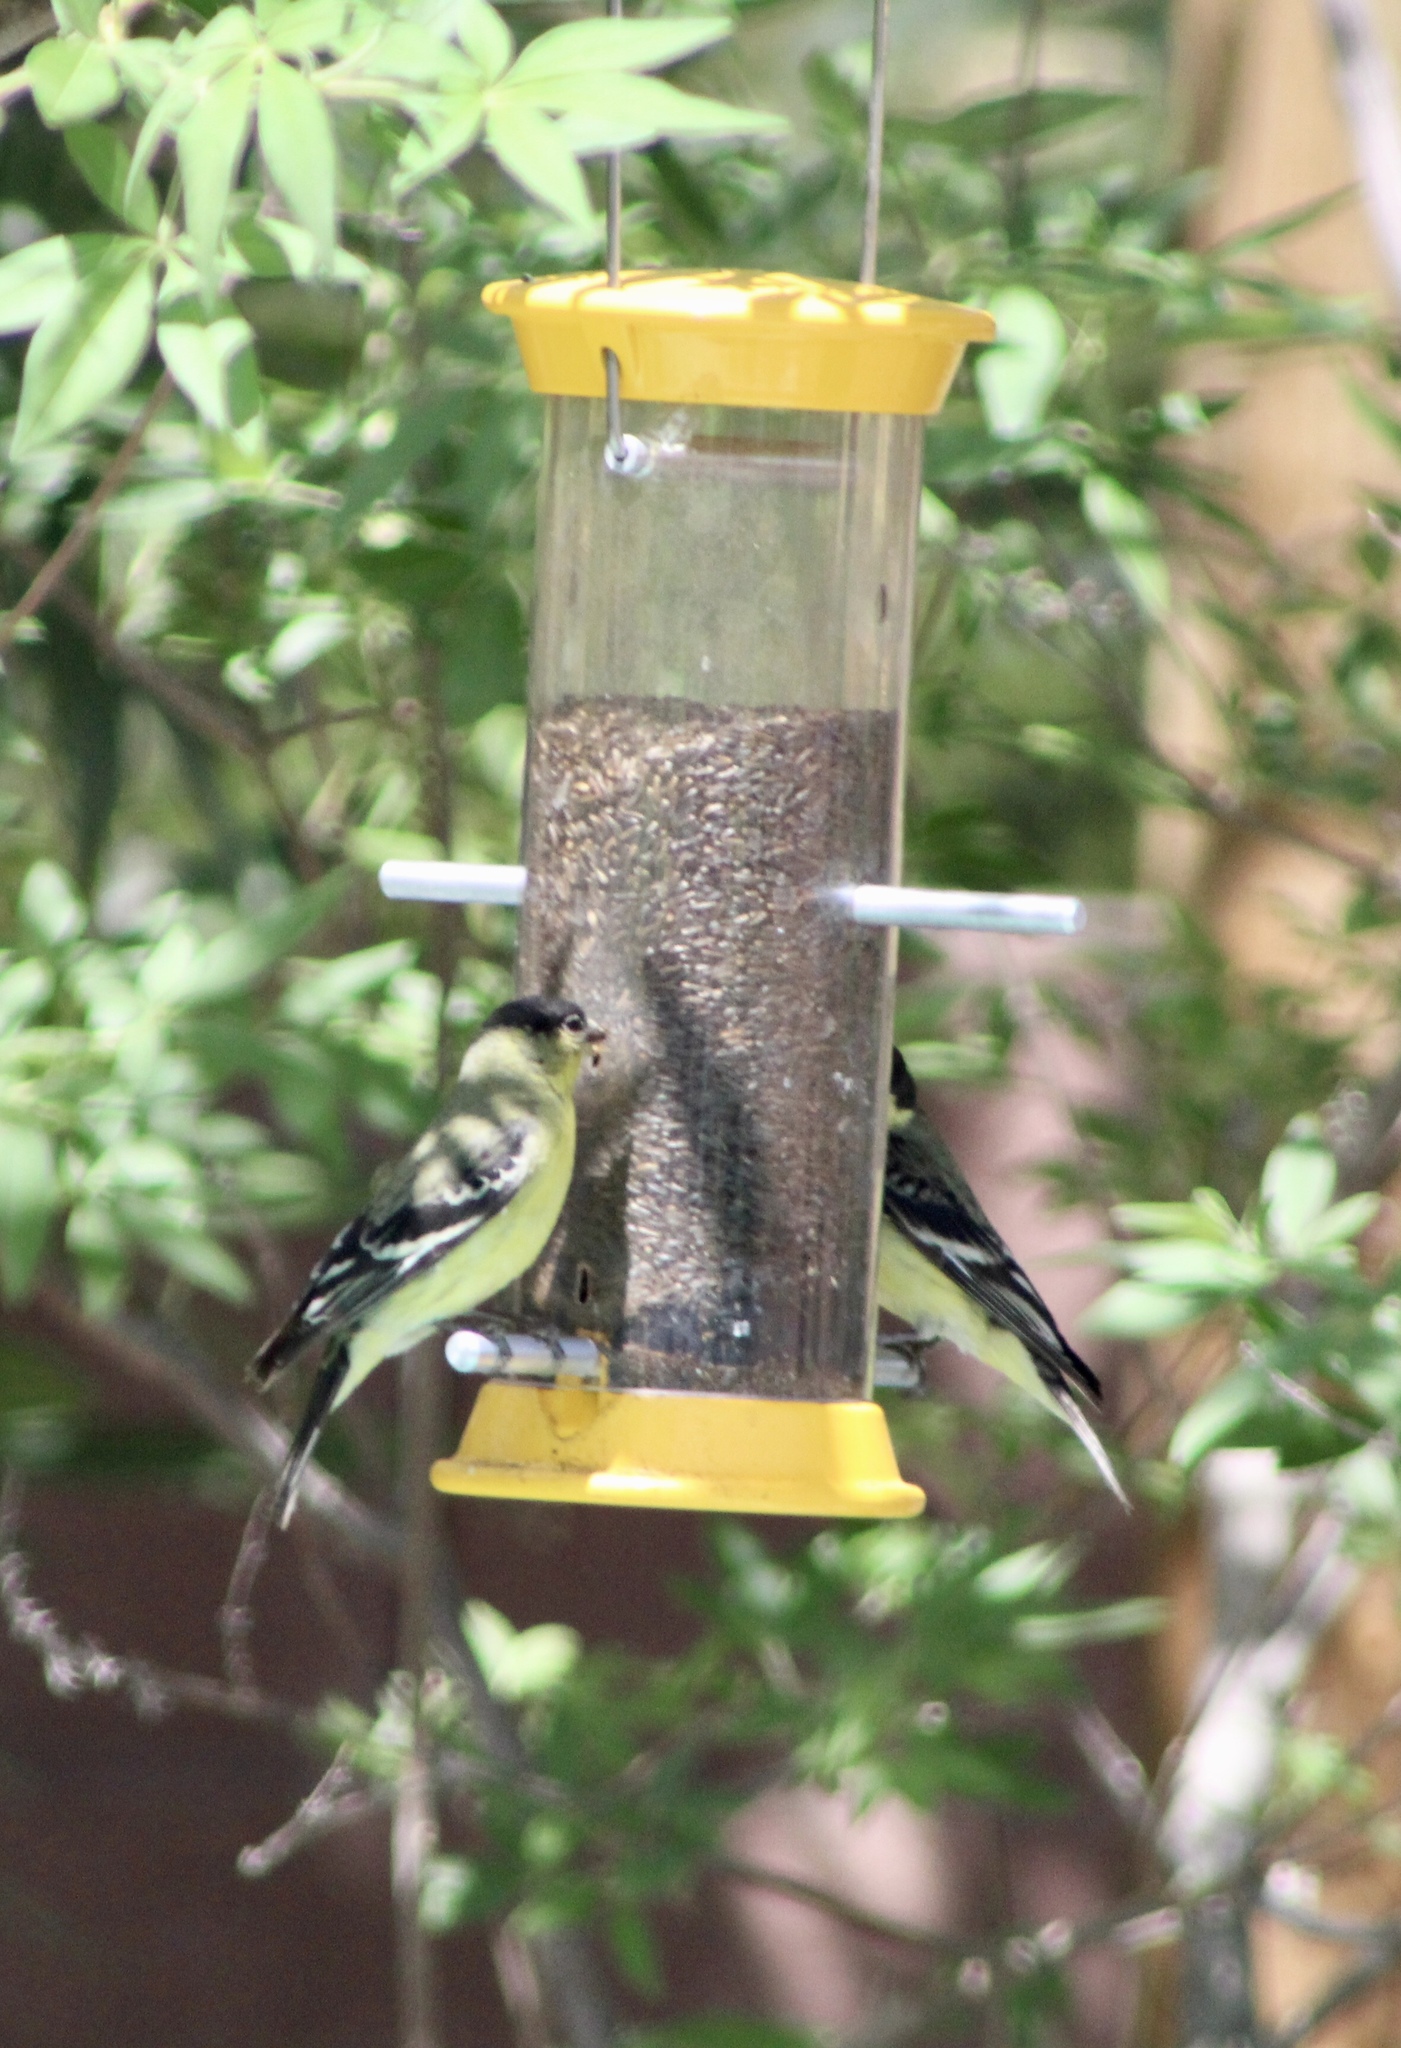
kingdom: Animalia
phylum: Chordata
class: Aves
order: Passeriformes
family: Fringillidae
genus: Spinus
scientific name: Spinus psaltria
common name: Lesser goldfinch
